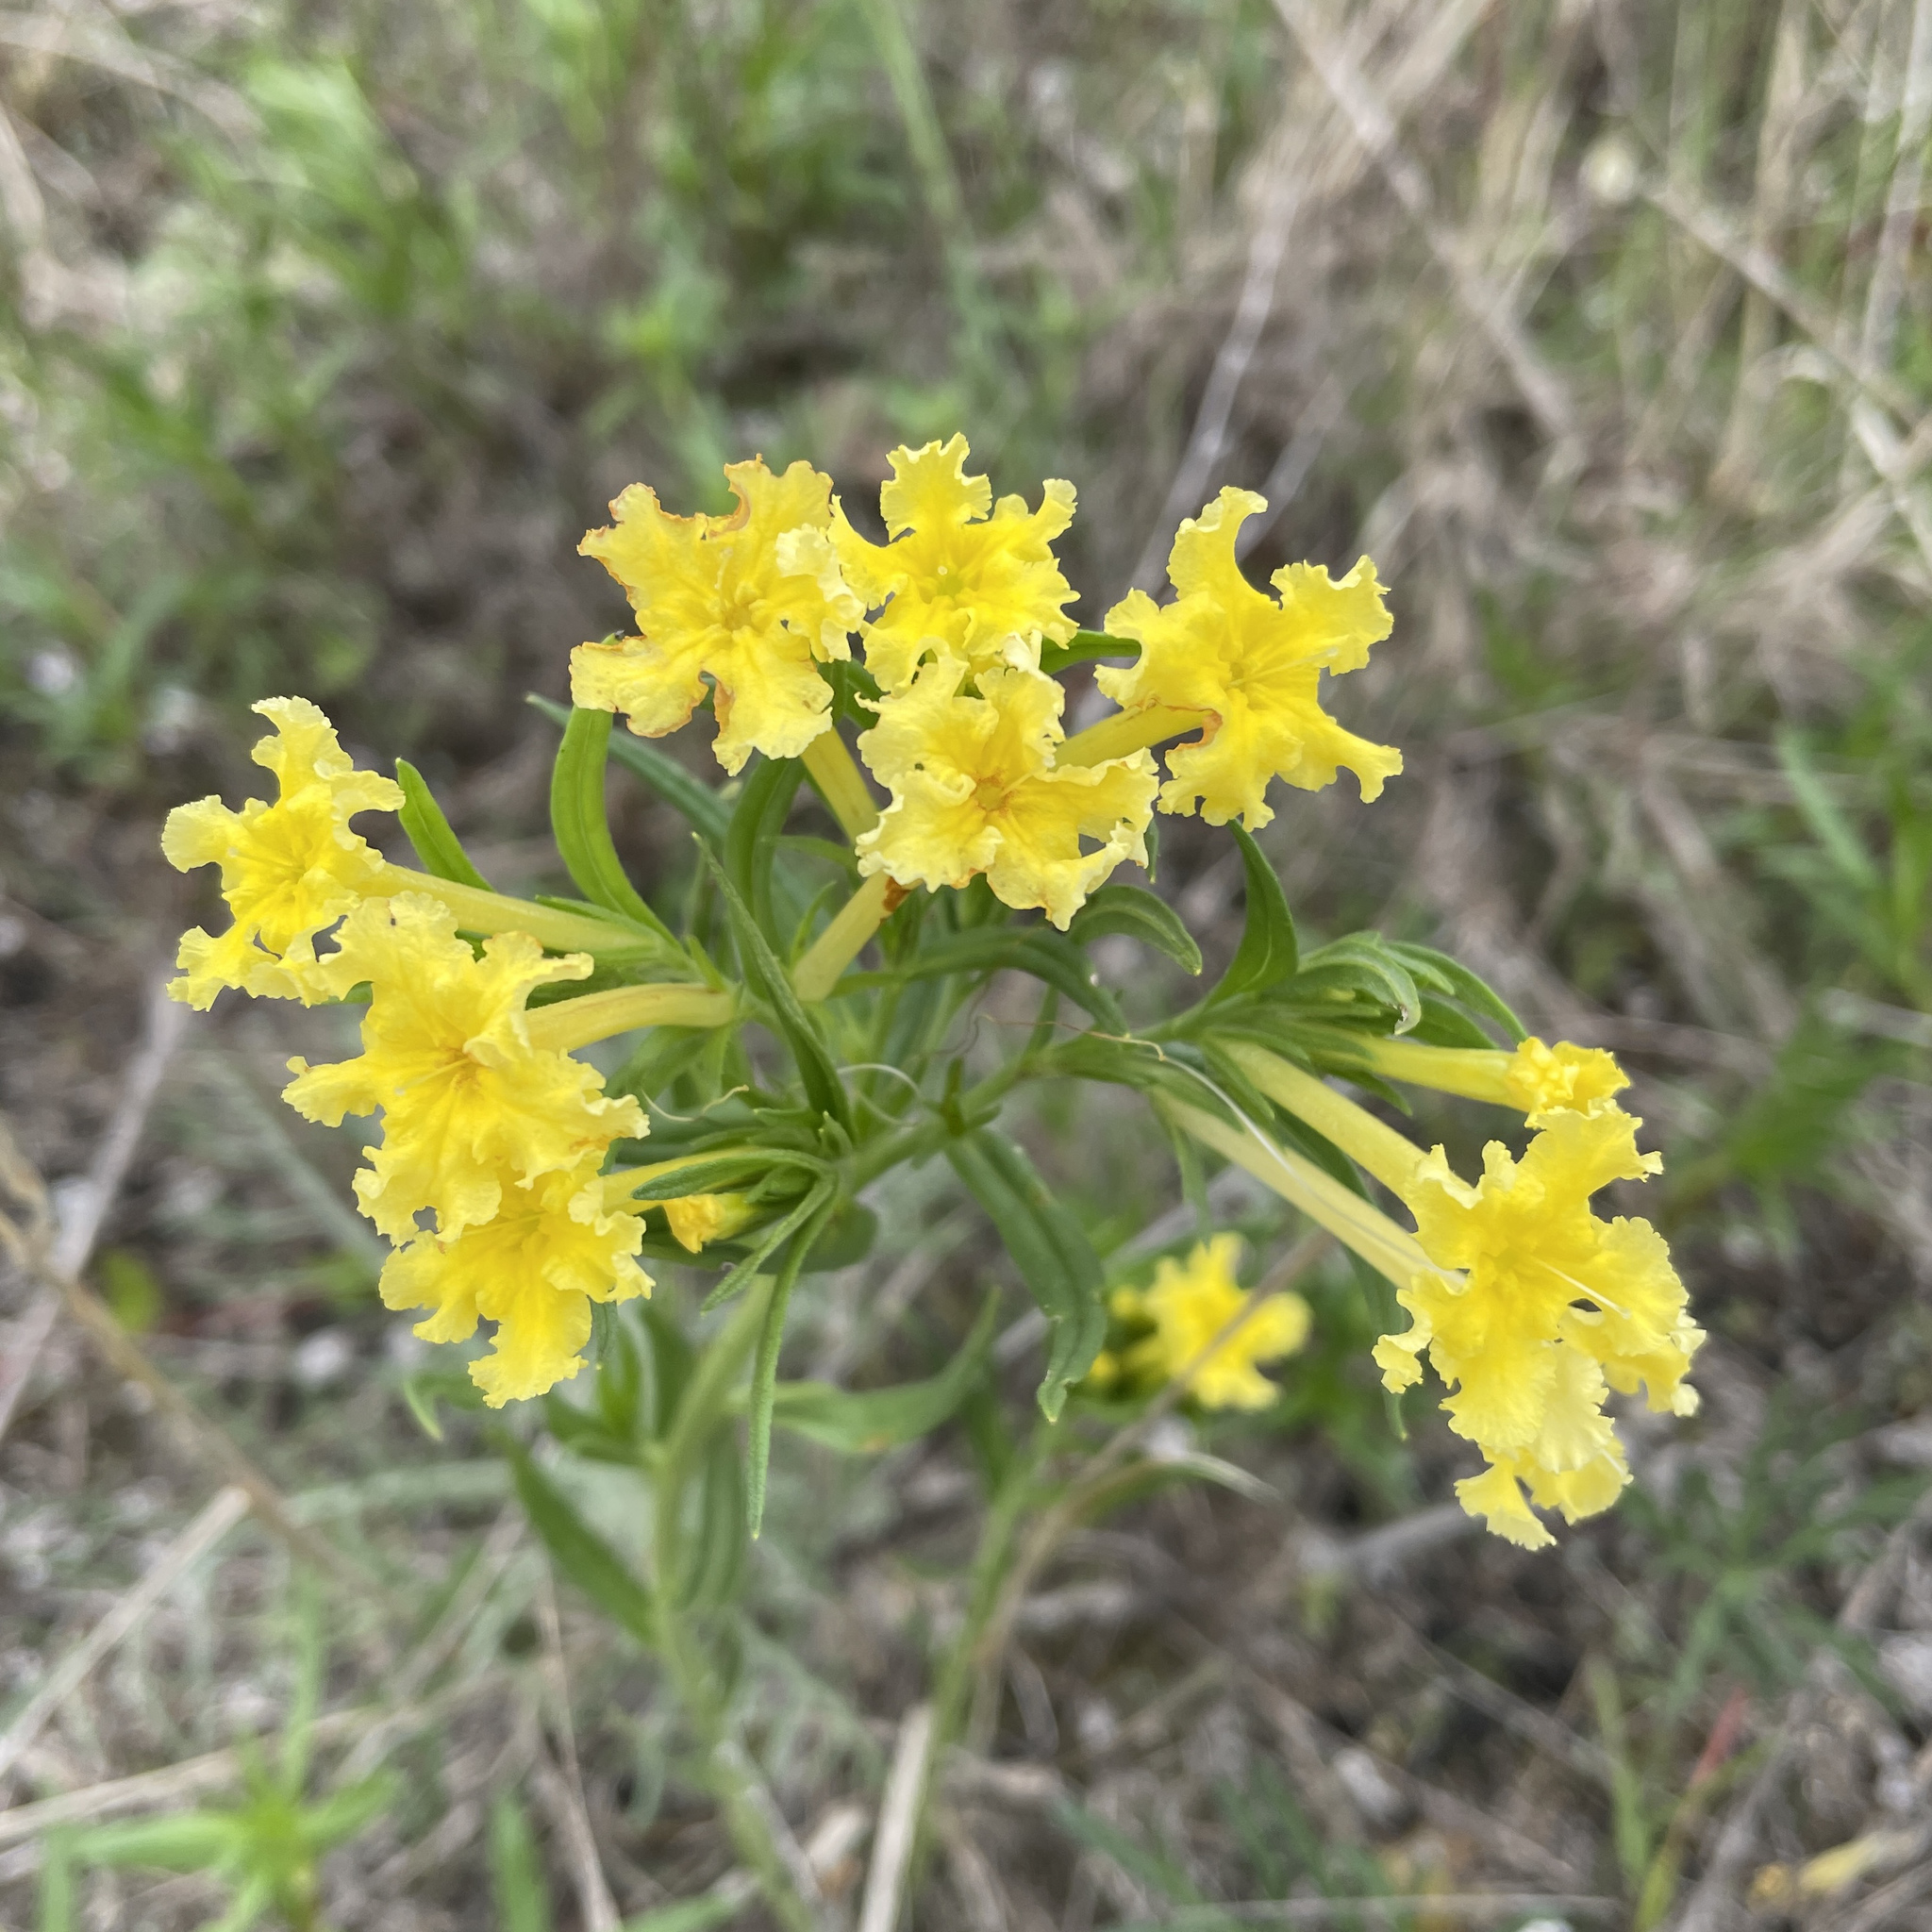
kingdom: Plantae
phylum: Tracheophyta
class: Magnoliopsida
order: Boraginales
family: Boraginaceae
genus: Lithospermum
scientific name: Lithospermum incisum
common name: Fringed gromwell
